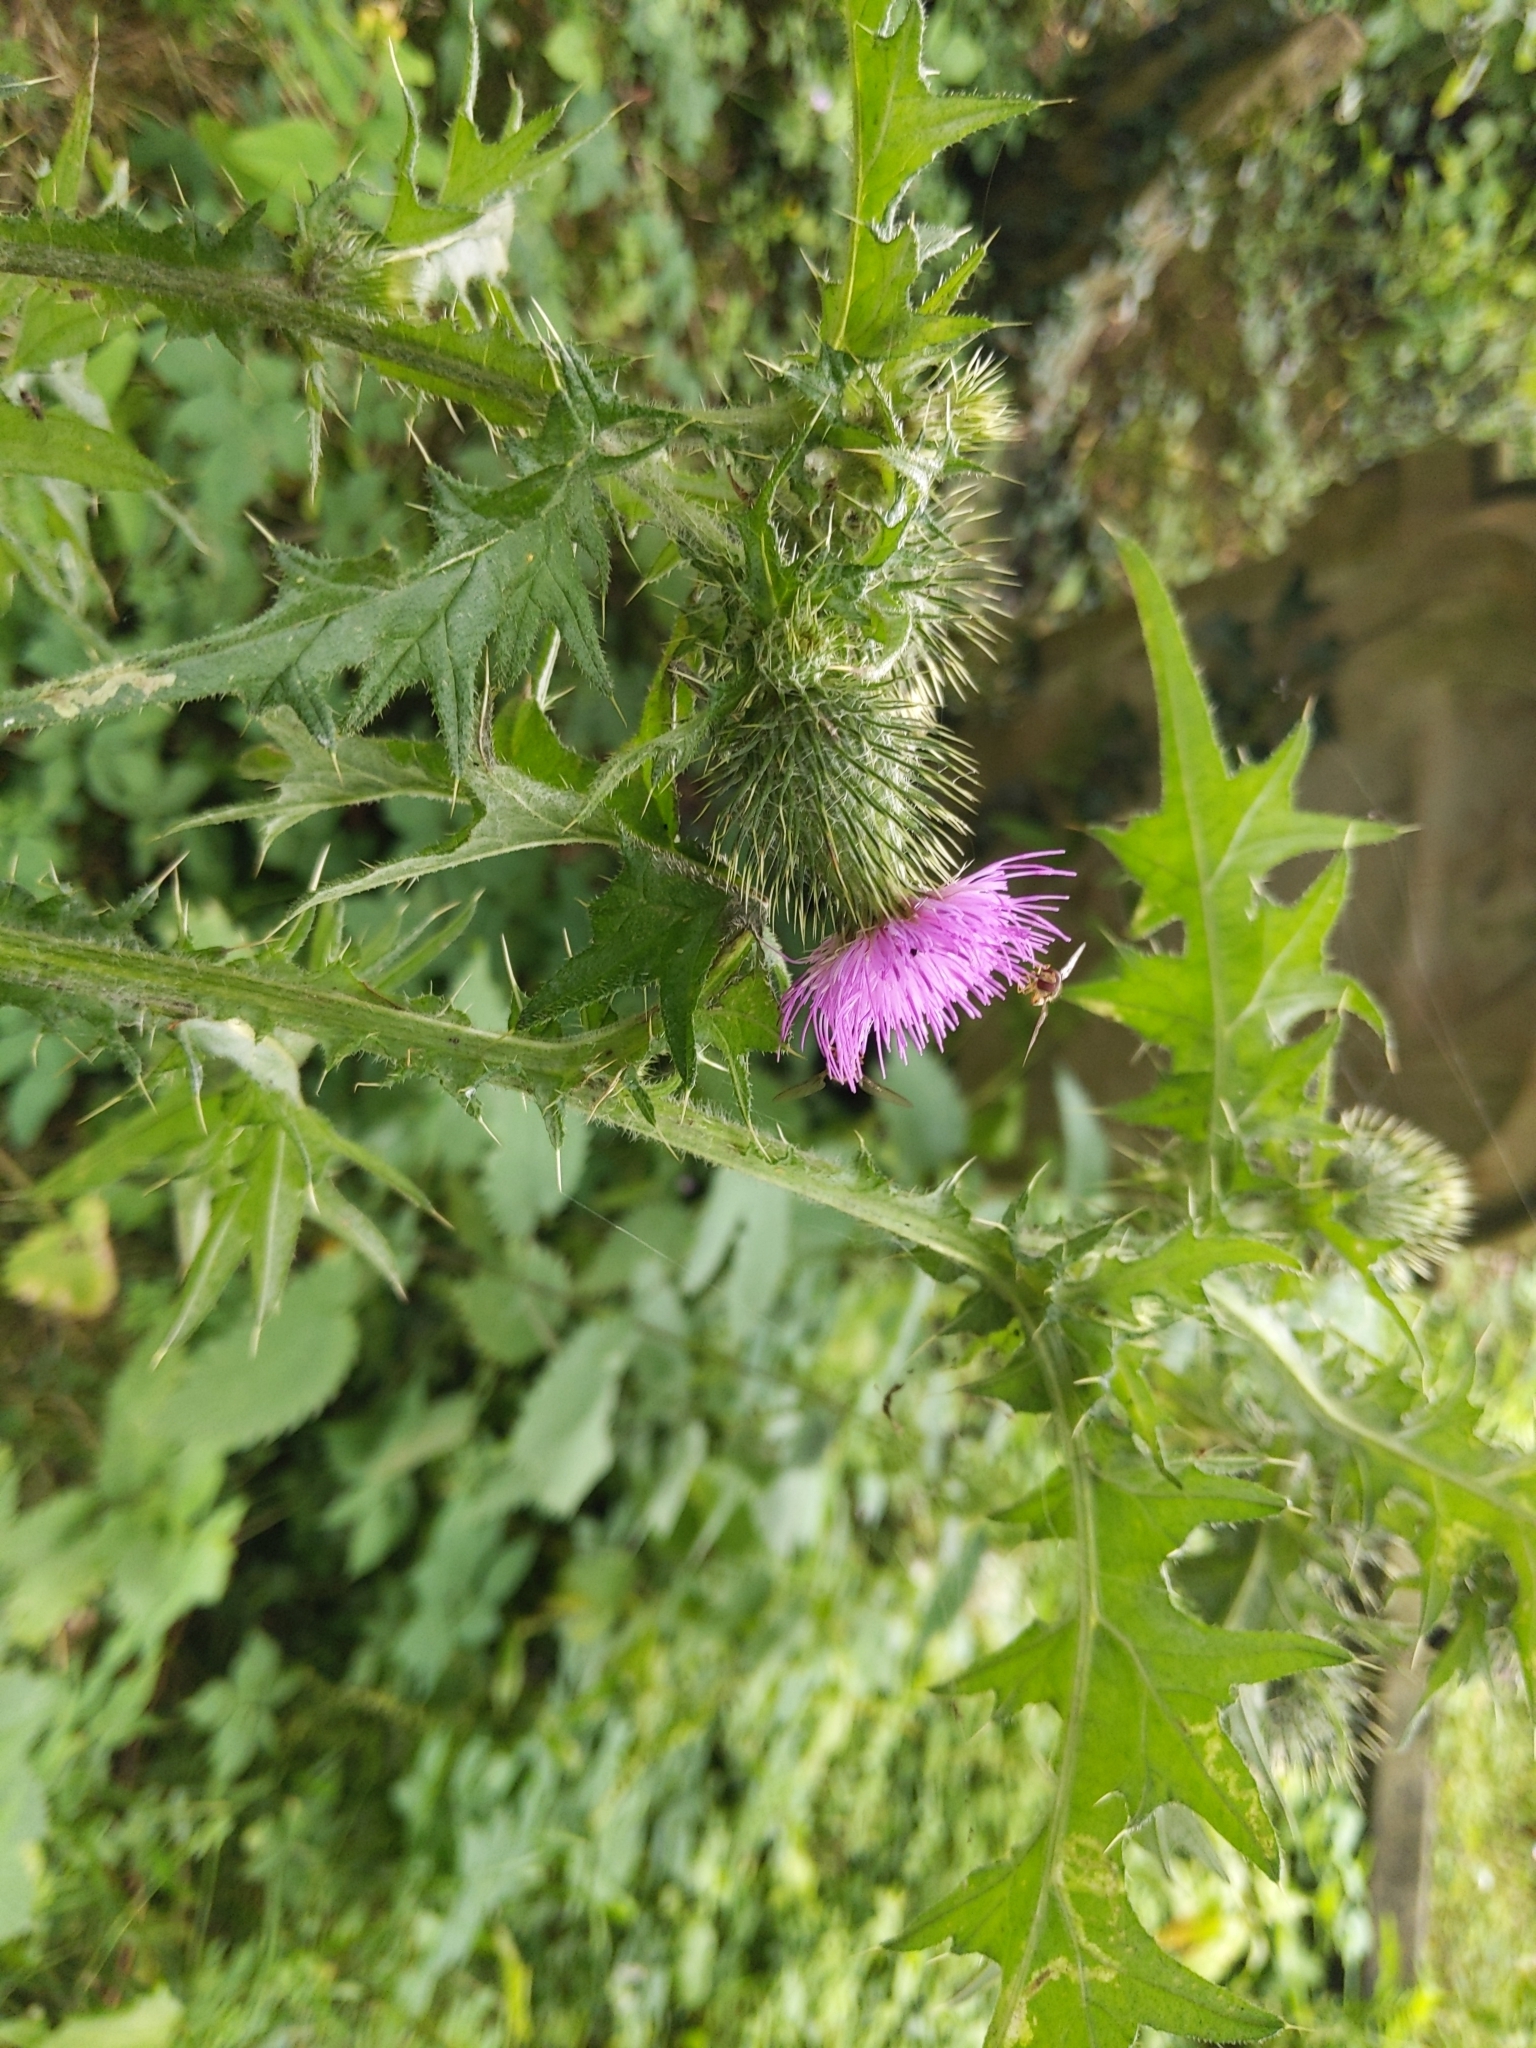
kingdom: Plantae
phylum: Tracheophyta
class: Magnoliopsida
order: Asterales
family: Asteraceae
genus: Cirsium
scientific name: Cirsium vulgare
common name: Bull thistle
